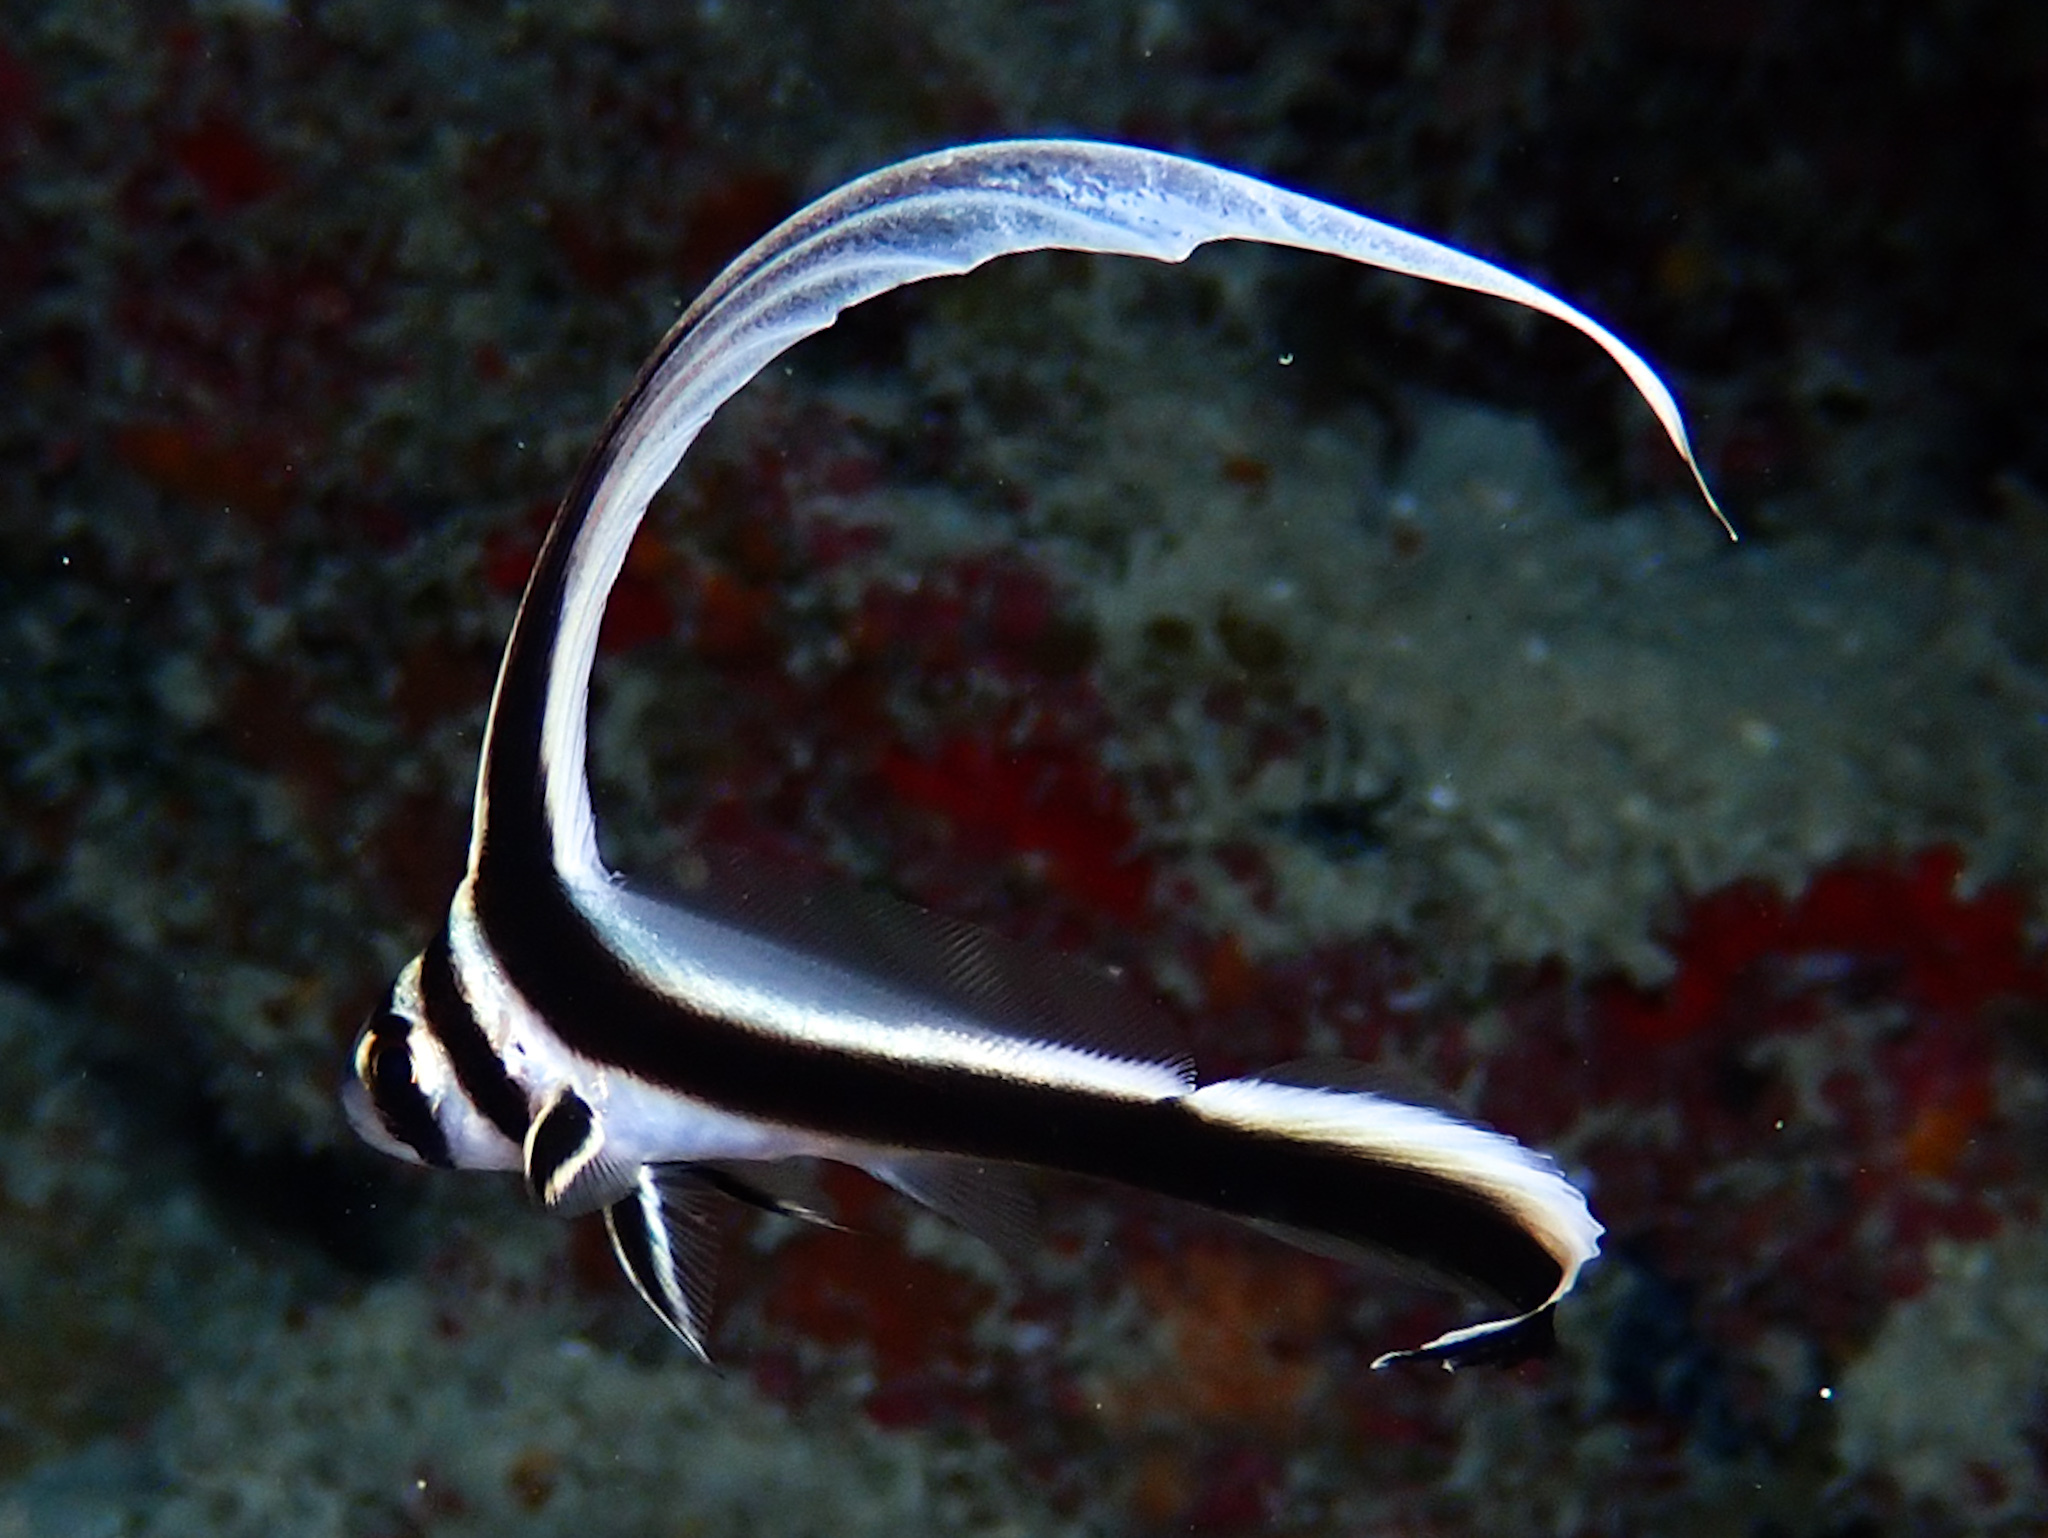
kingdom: Animalia
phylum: Chordata
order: Perciformes
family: Sciaenidae
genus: Equetus
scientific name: Equetus punctatus
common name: Spotted drum
